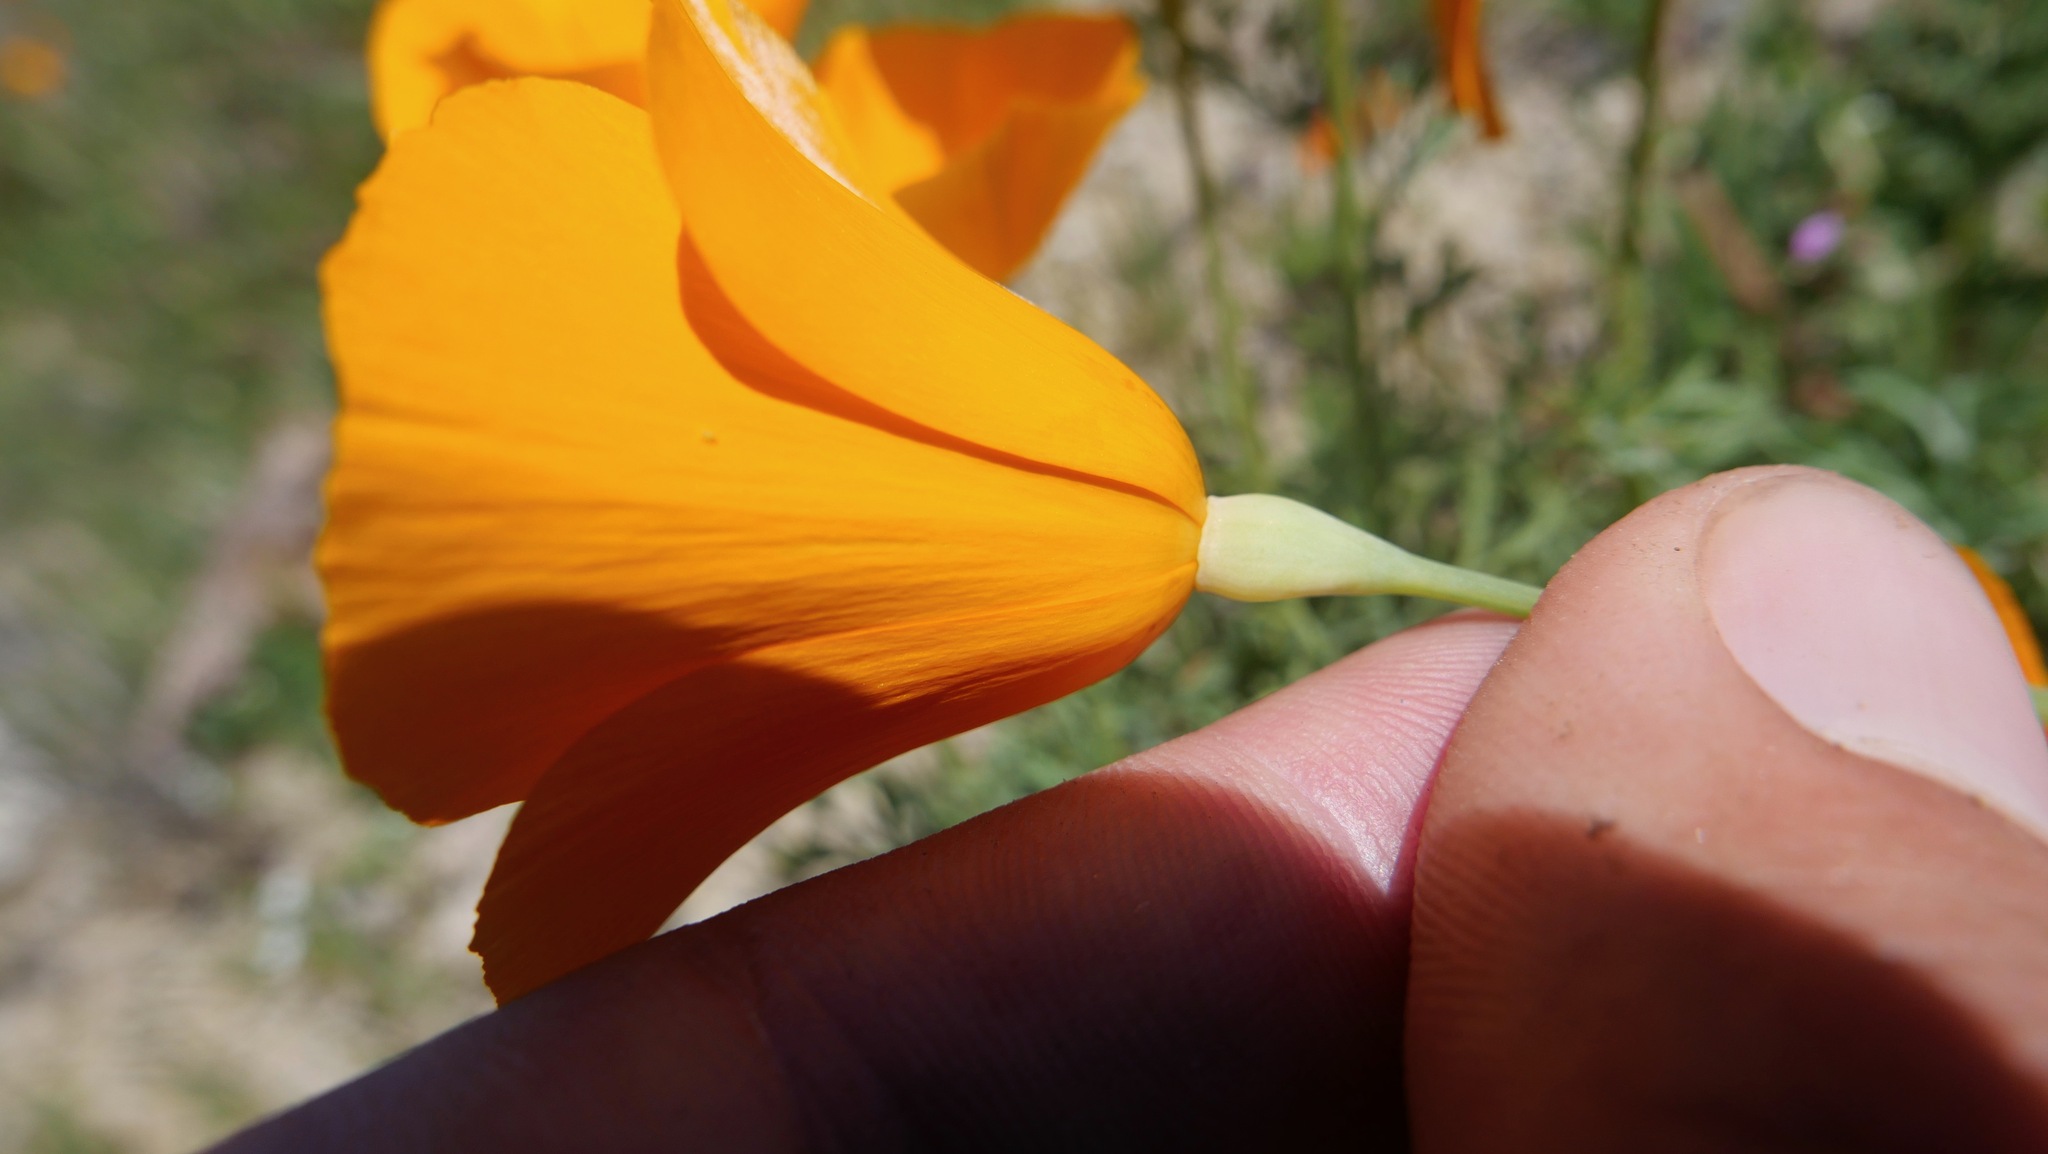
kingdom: Plantae
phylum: Tracheophyta
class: Magnoliopsida
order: Ranunculales
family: Papaveraceae
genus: Eschscholzia
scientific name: Eschscholzia lemmonii
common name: Lemmon's poppy
